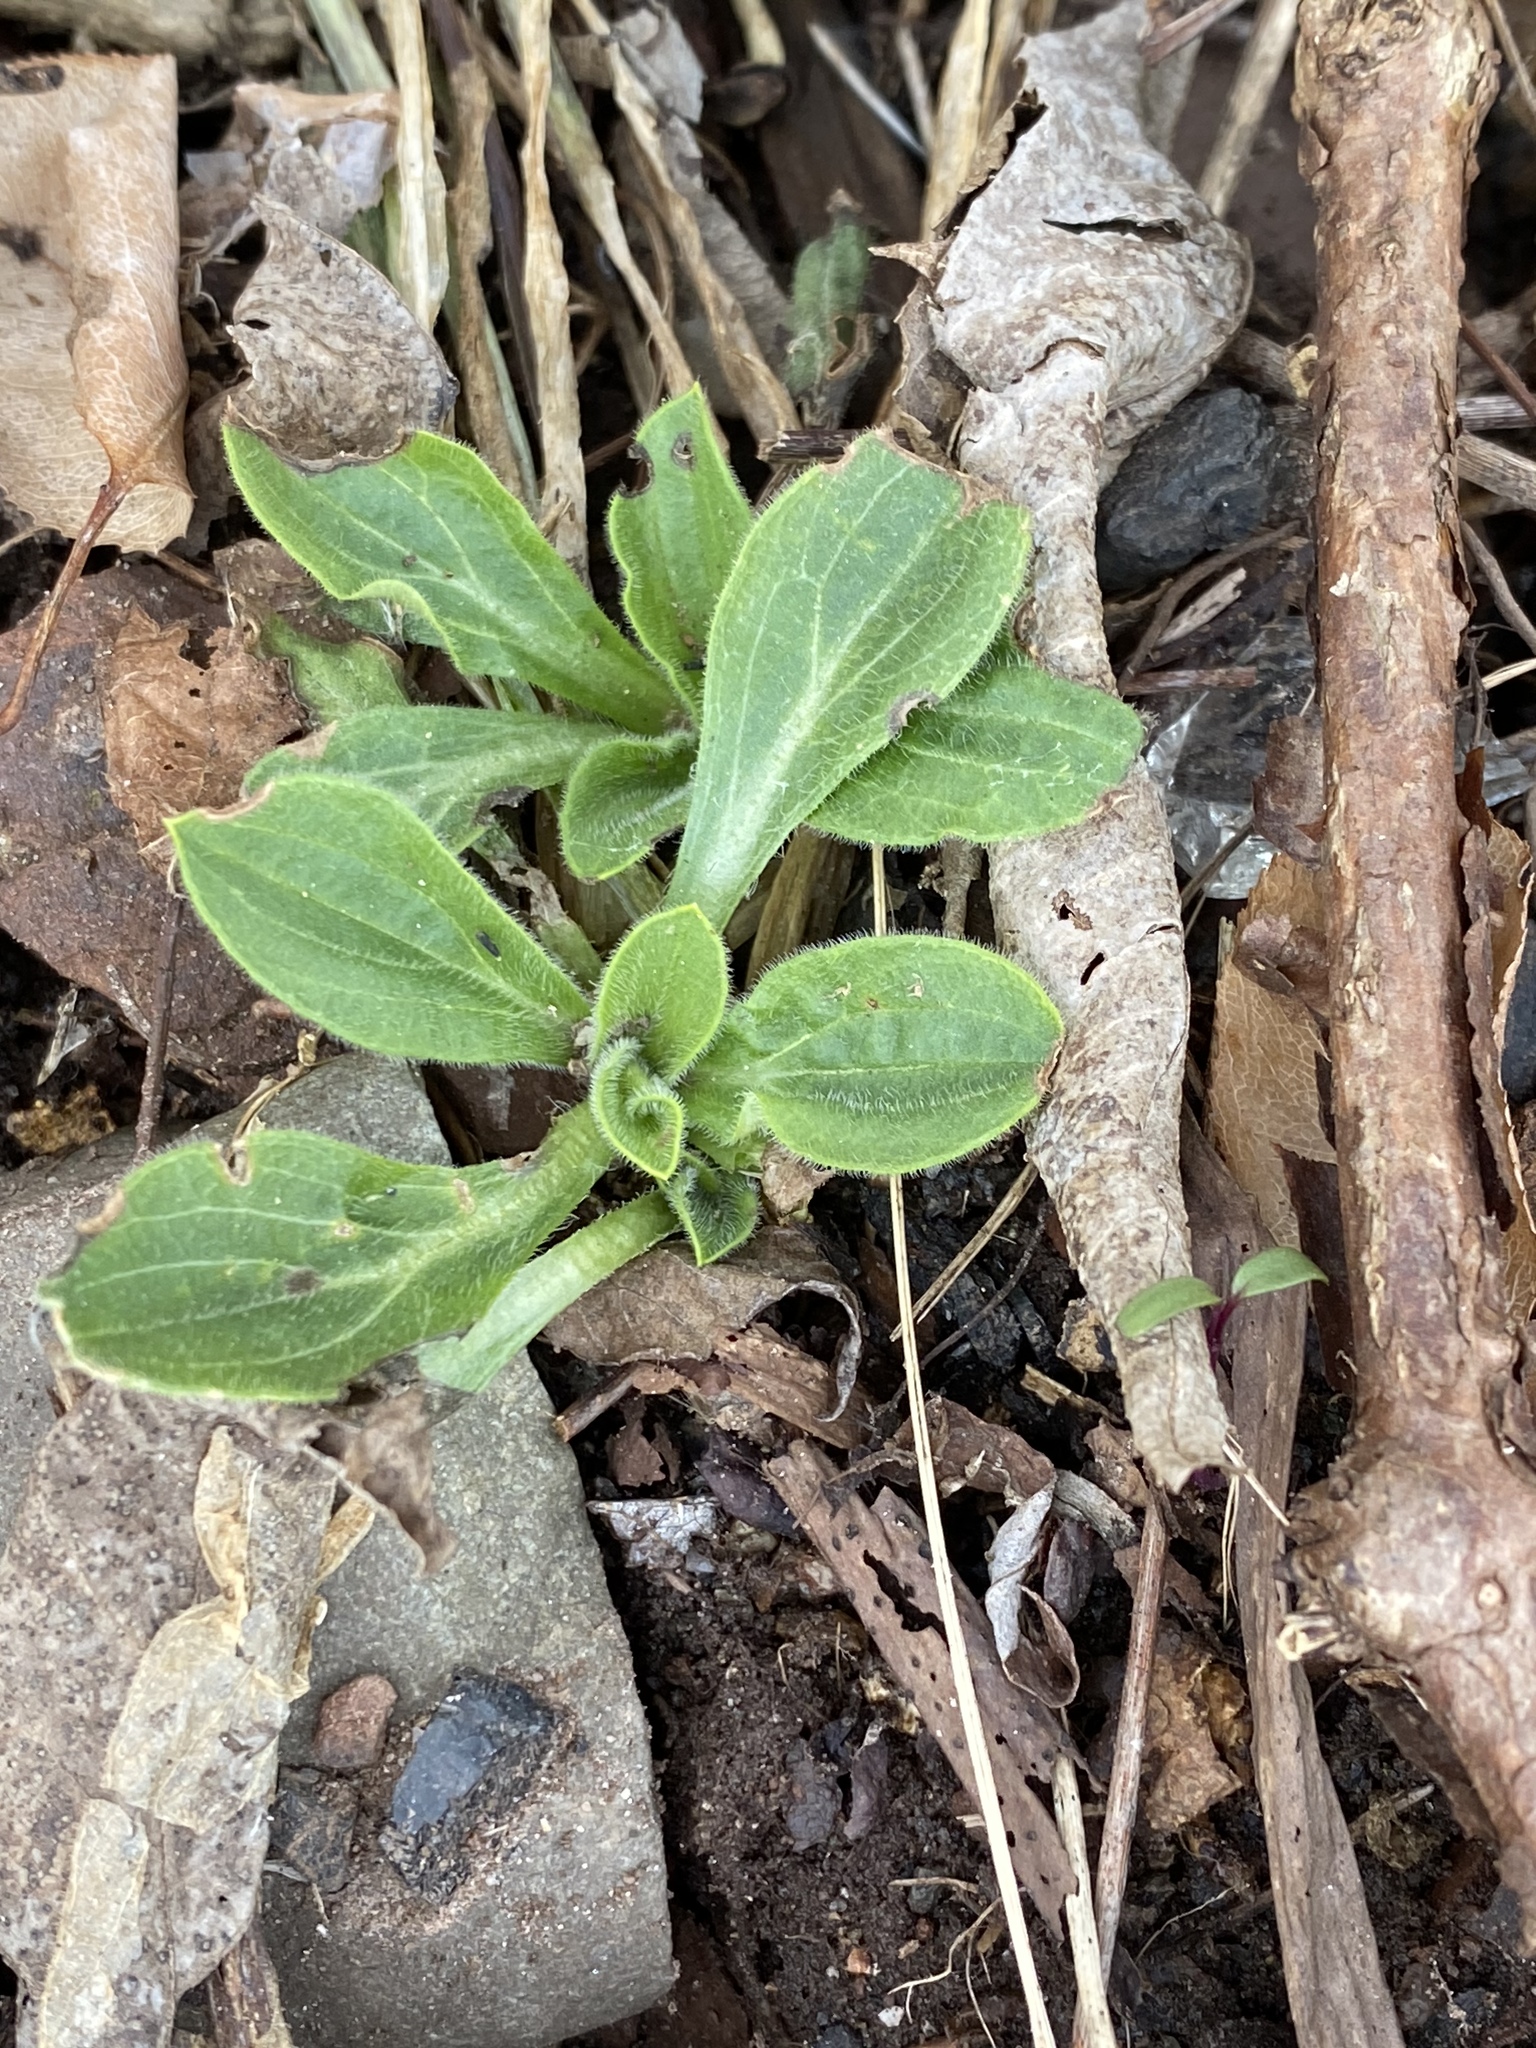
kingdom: Plantae
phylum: Tracheophyta
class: Magnoliopsida
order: Caryophyllales
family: Caryophyllaceae
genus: Silene
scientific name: Silene latifolia
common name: White campion
